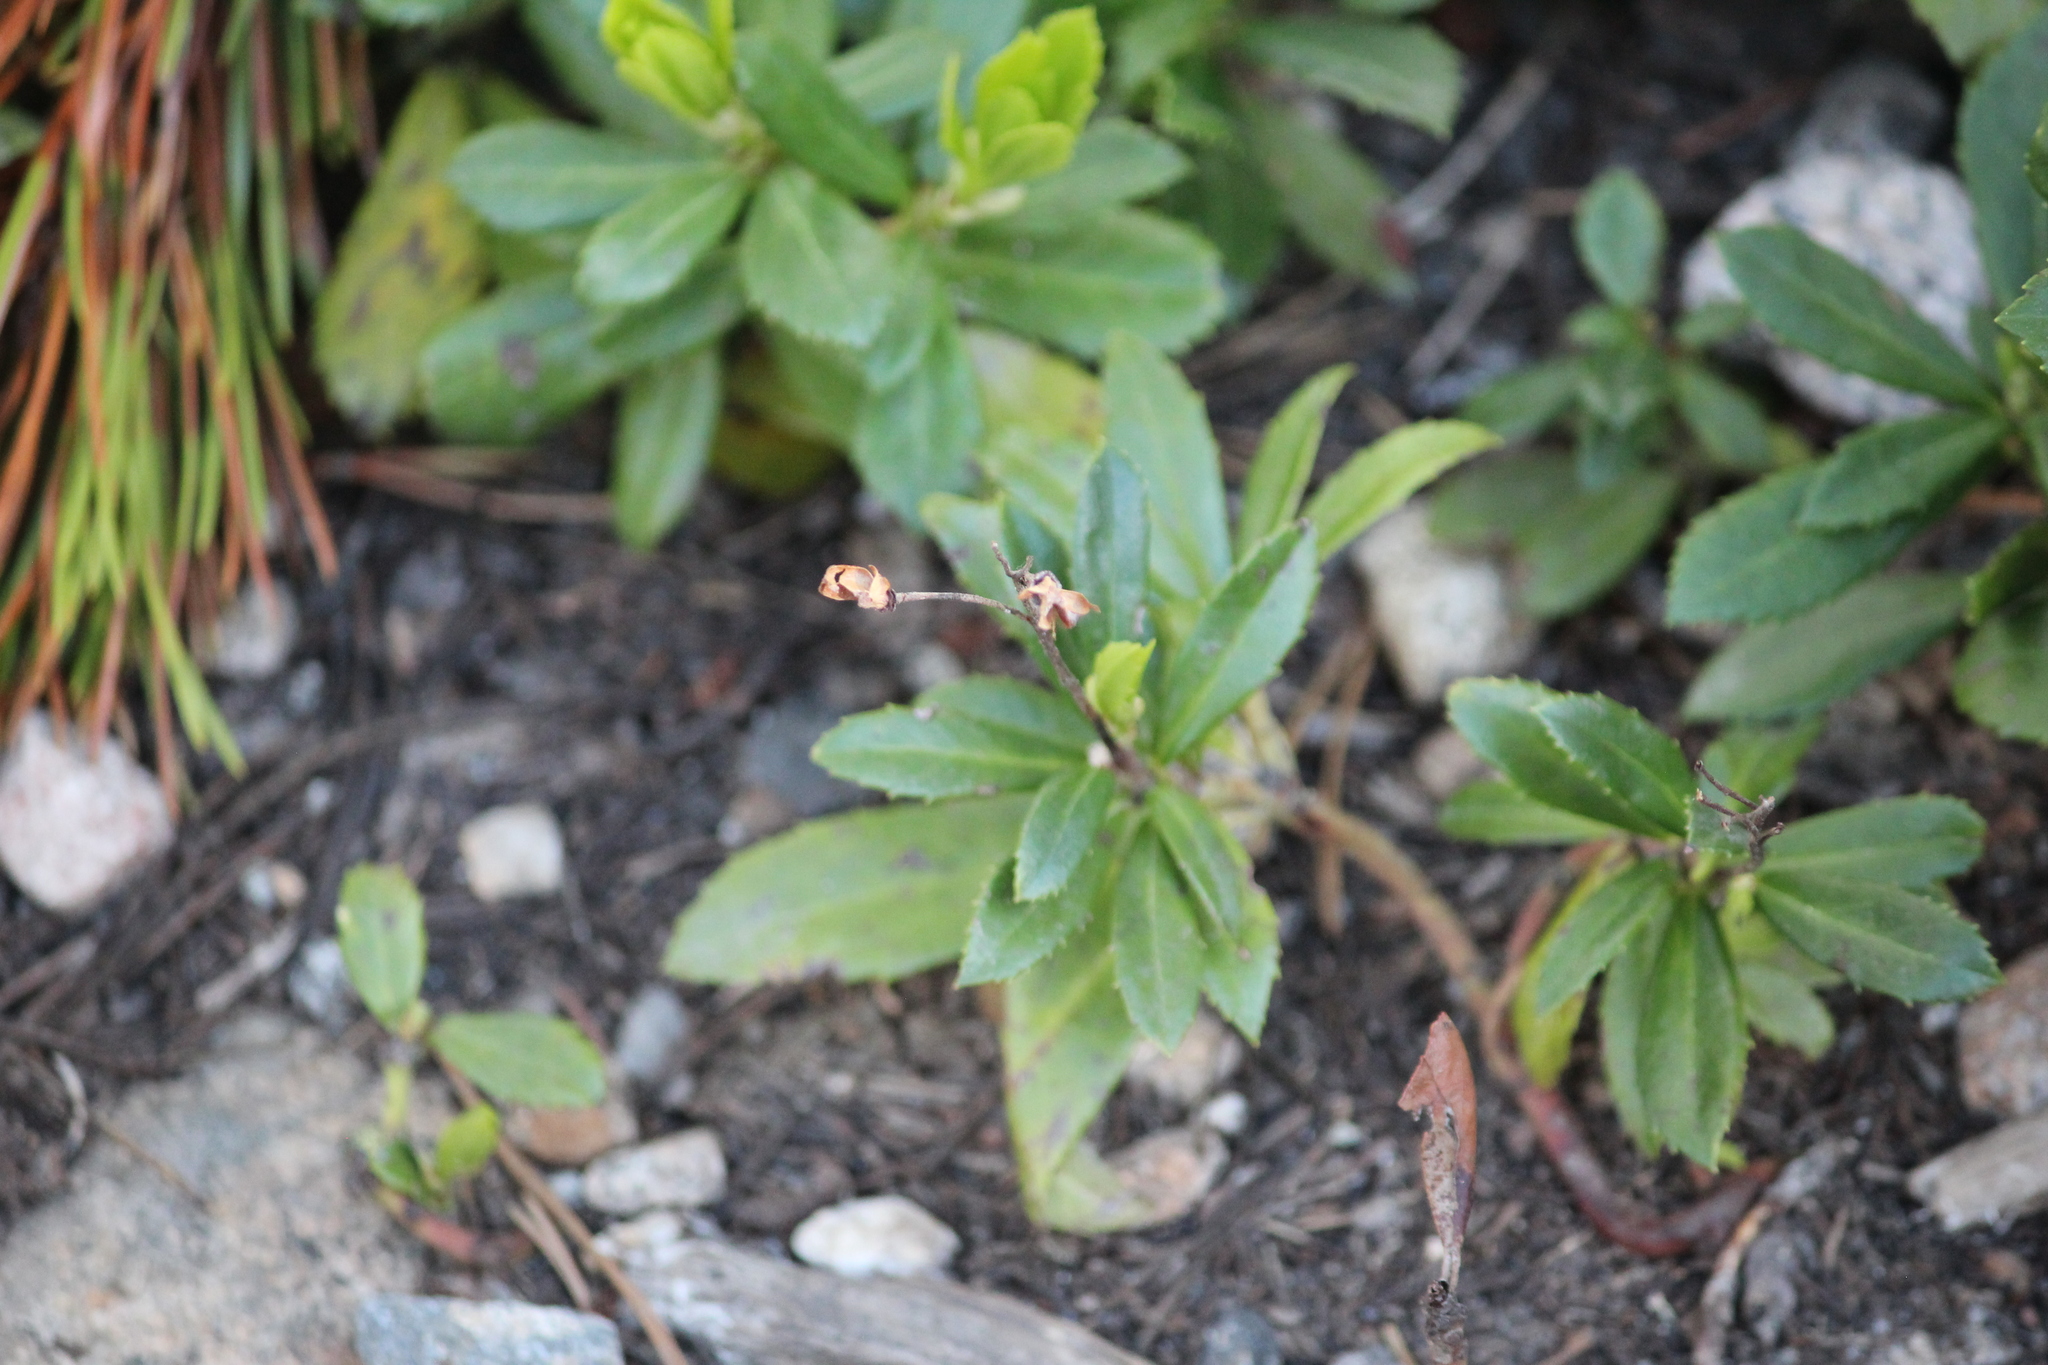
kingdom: Plantae
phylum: Tracheophyta
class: Magnoliopsida
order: Ericales
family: Ericaceae
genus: Chimaphila
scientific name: Chimaphila umbellata
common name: Pipsissewa
